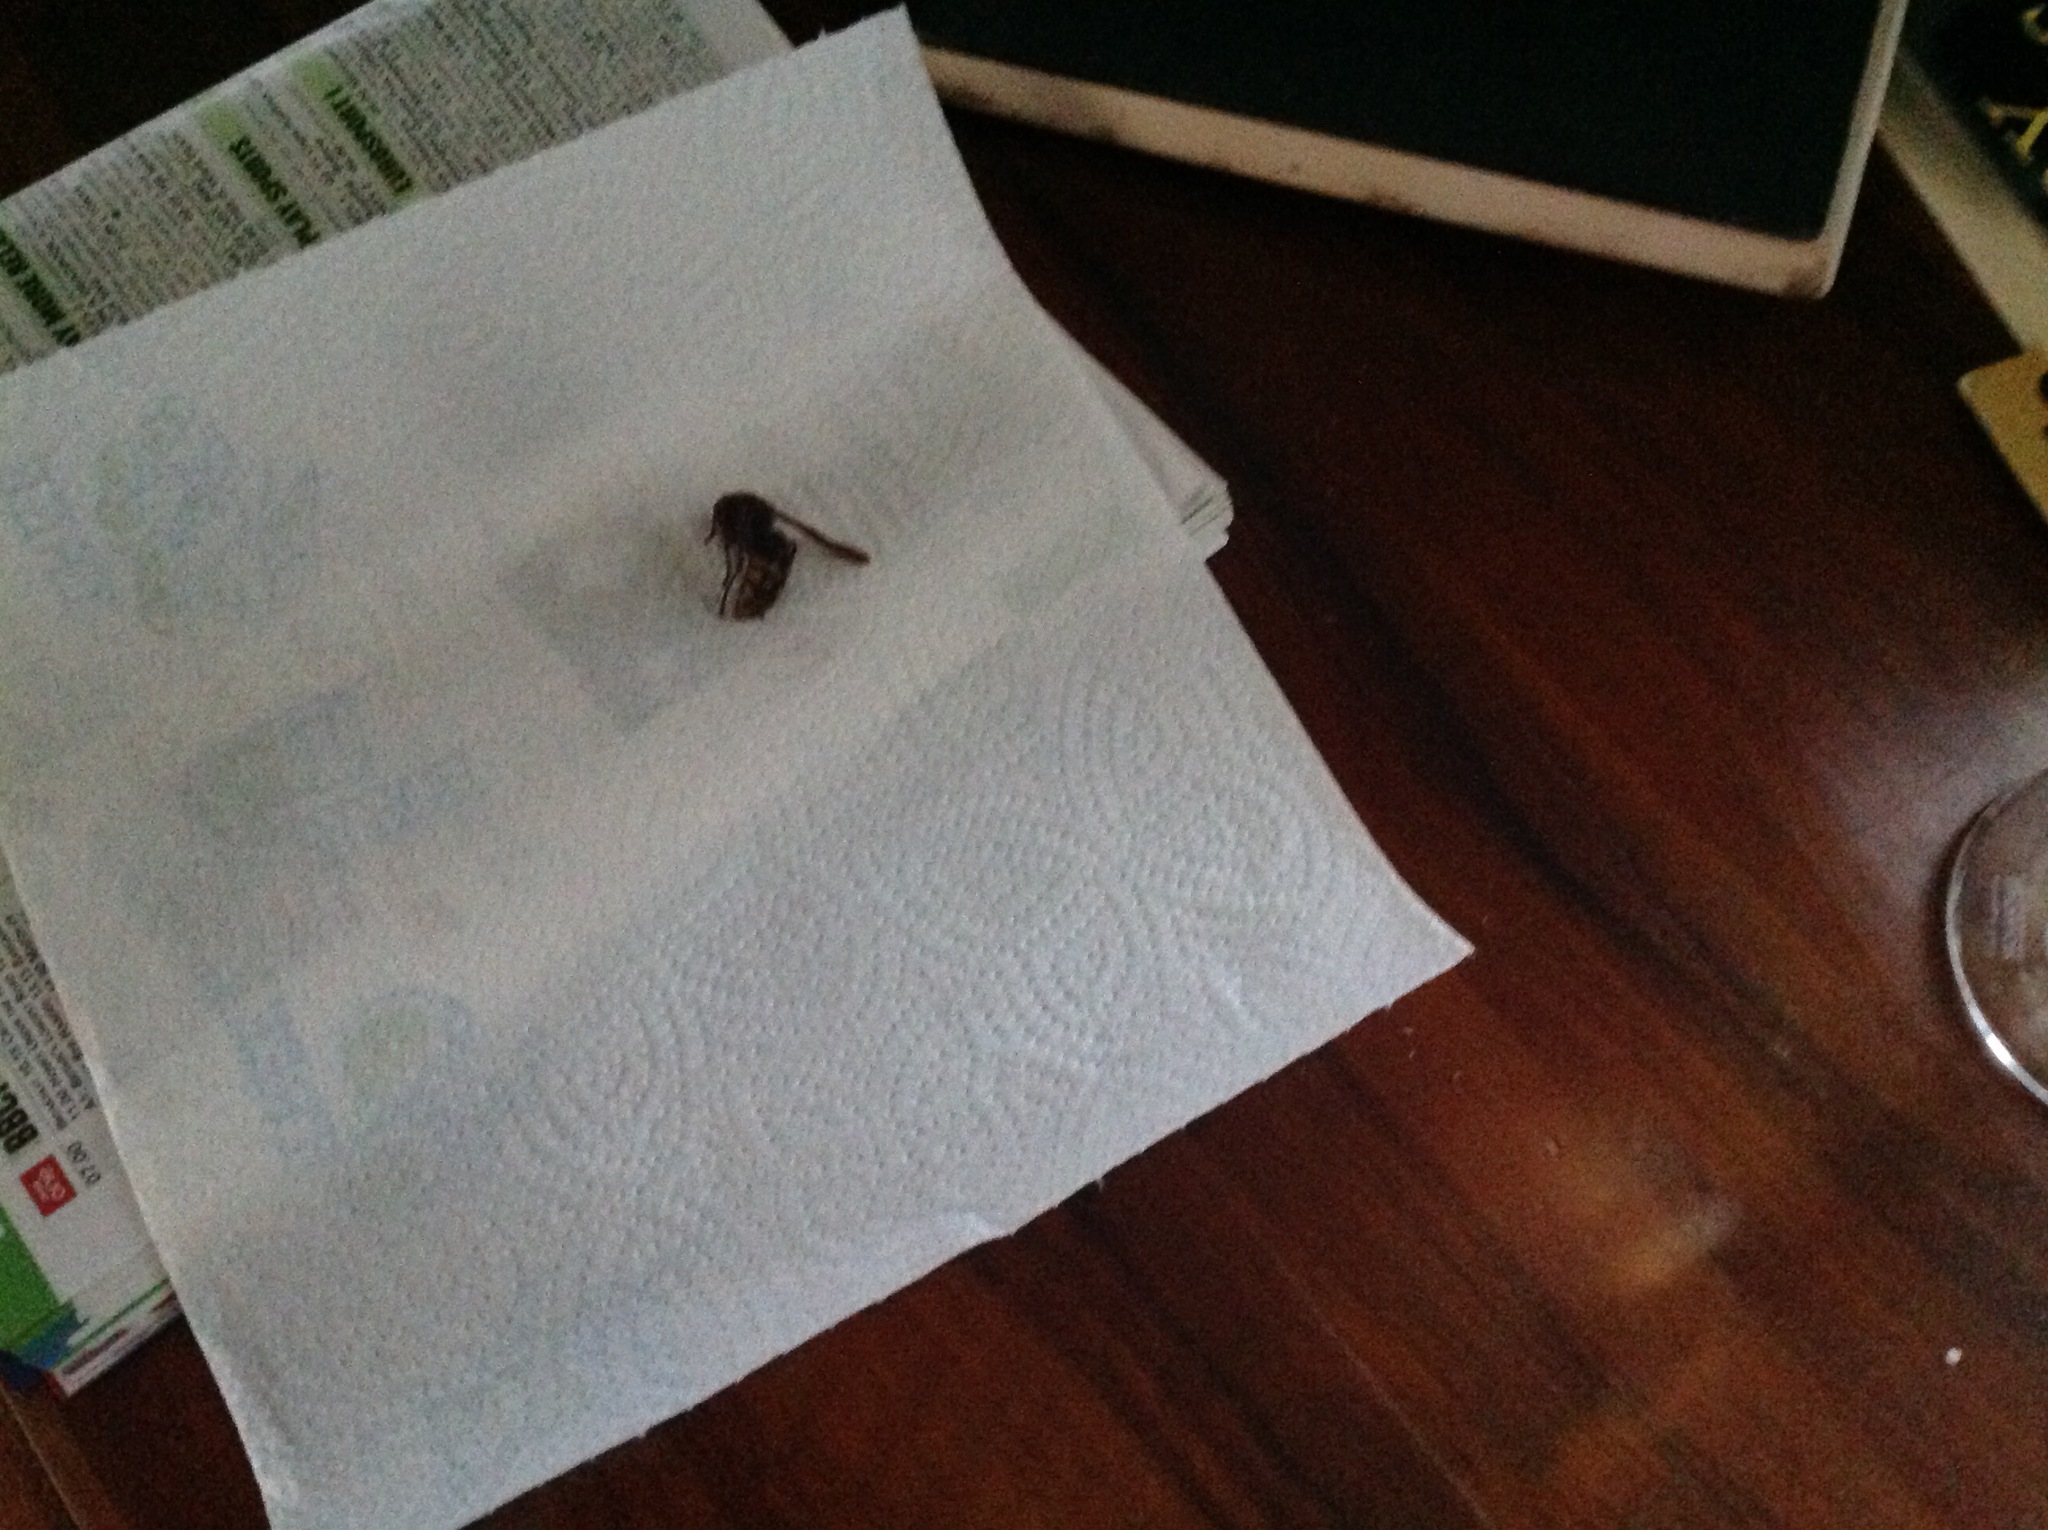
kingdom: Animalia
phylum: Arthropoda
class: Insecta
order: Hymenoptera
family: Vespidae
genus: Vespa
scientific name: Vespa crabro
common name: Hornet
